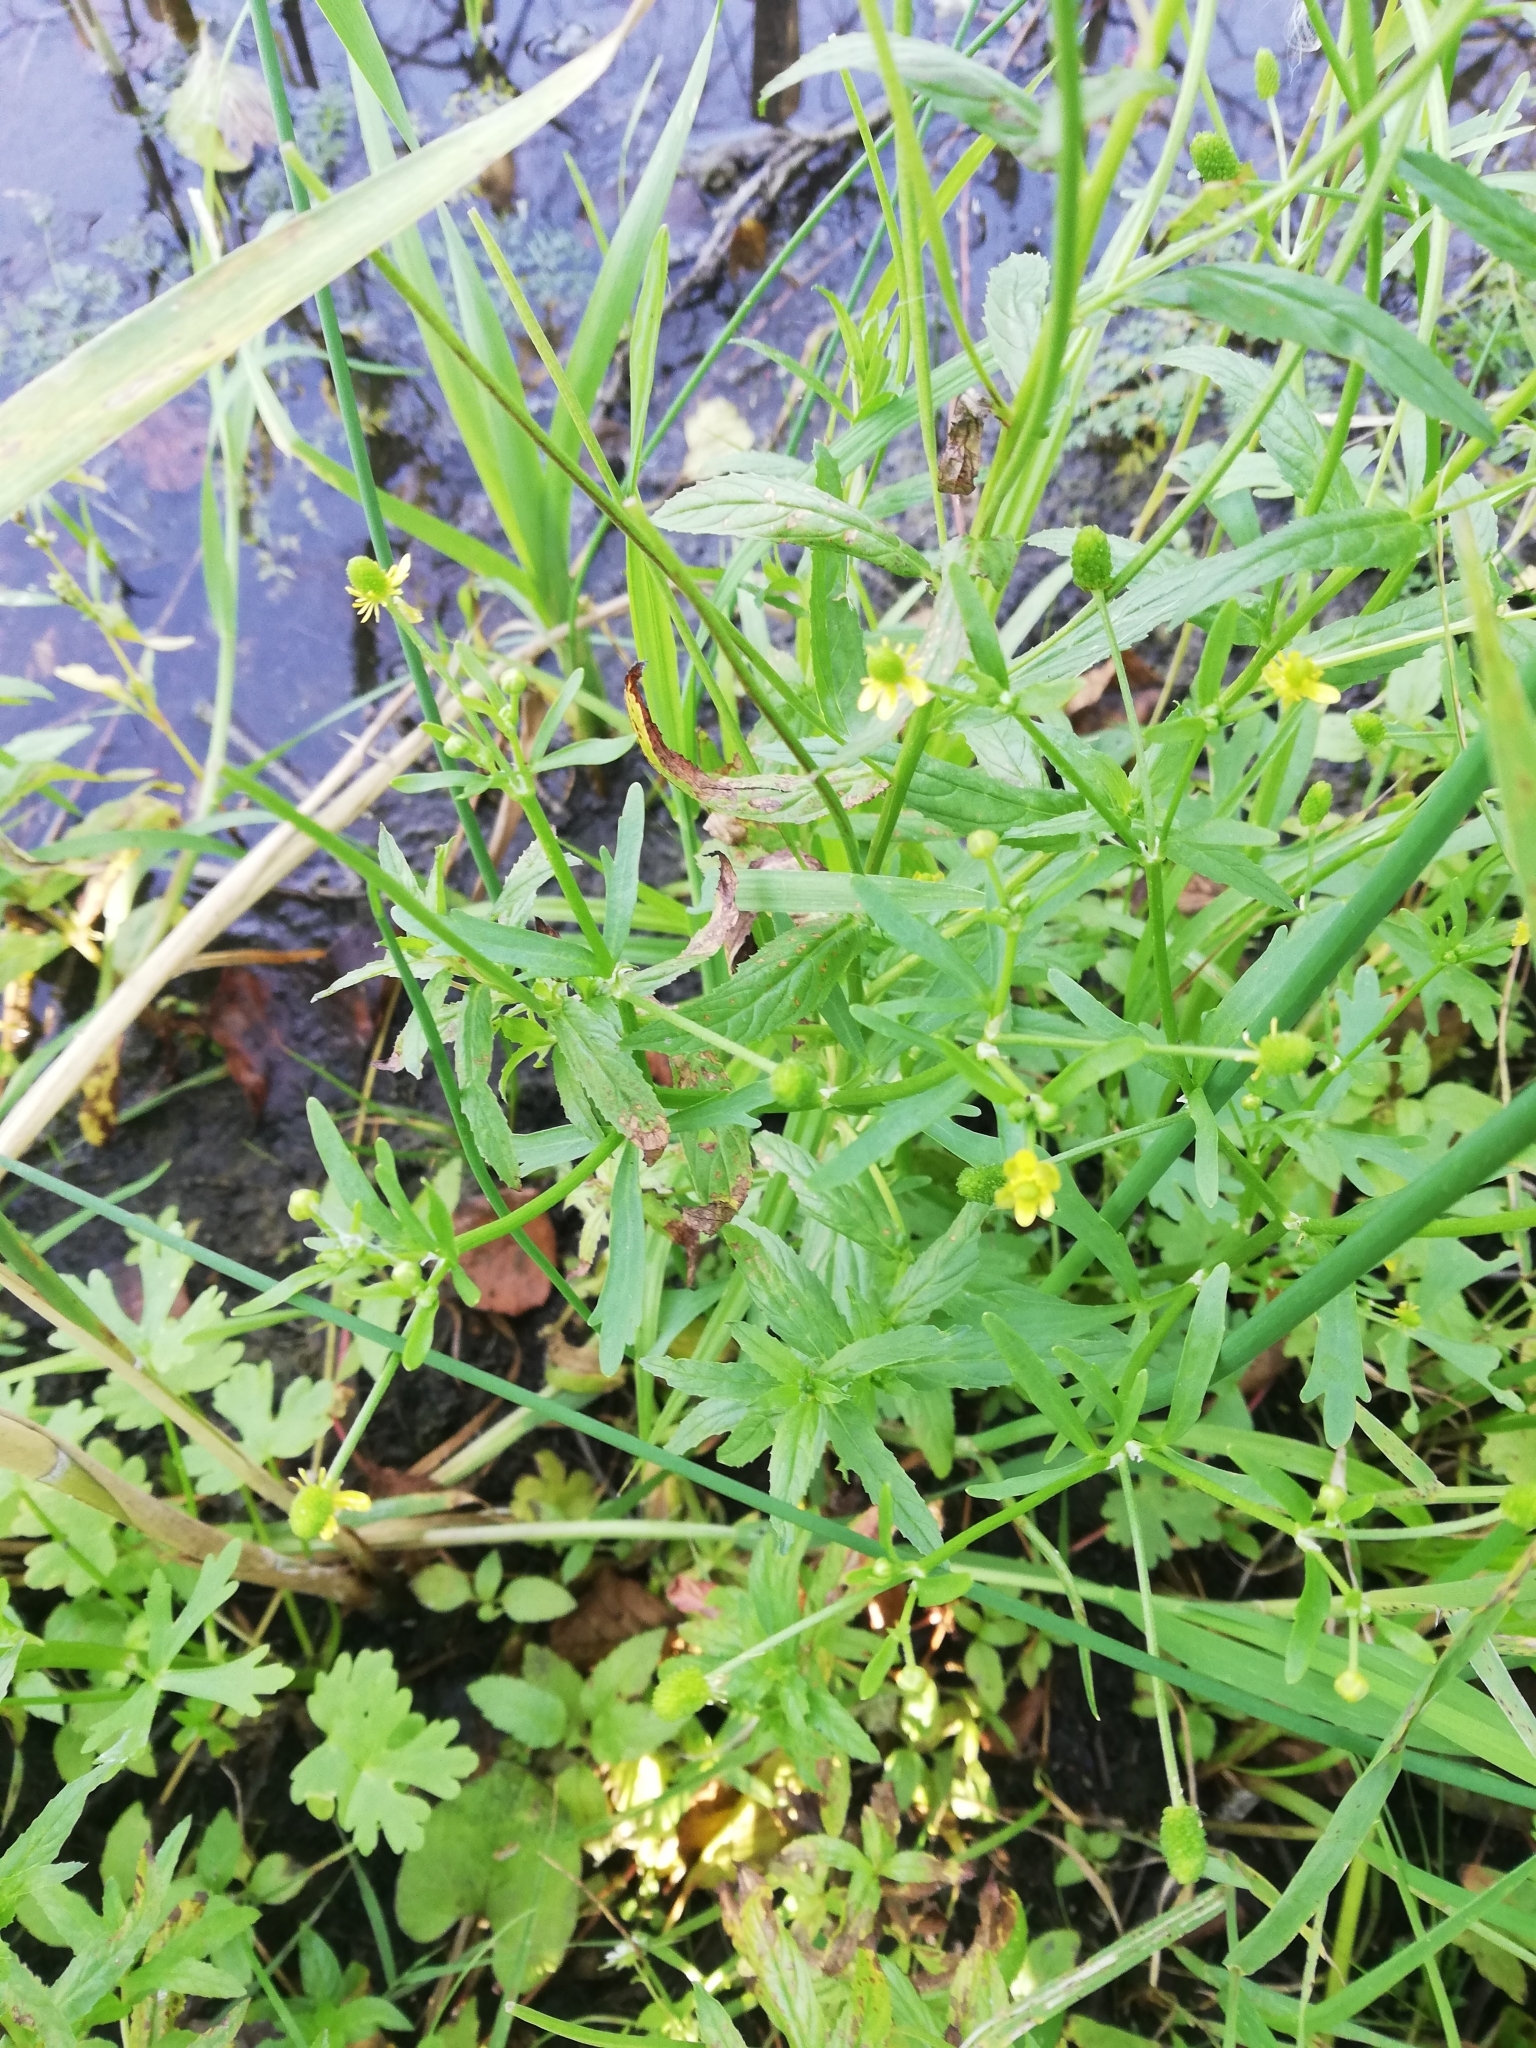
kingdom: Plantae
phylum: Tracheophyta
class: Magnoliopsida
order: Ranunculales
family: Ranunculaceae
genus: Ranunculus
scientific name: Ranunculus sceleratus
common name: Celery-leaved buttercup
